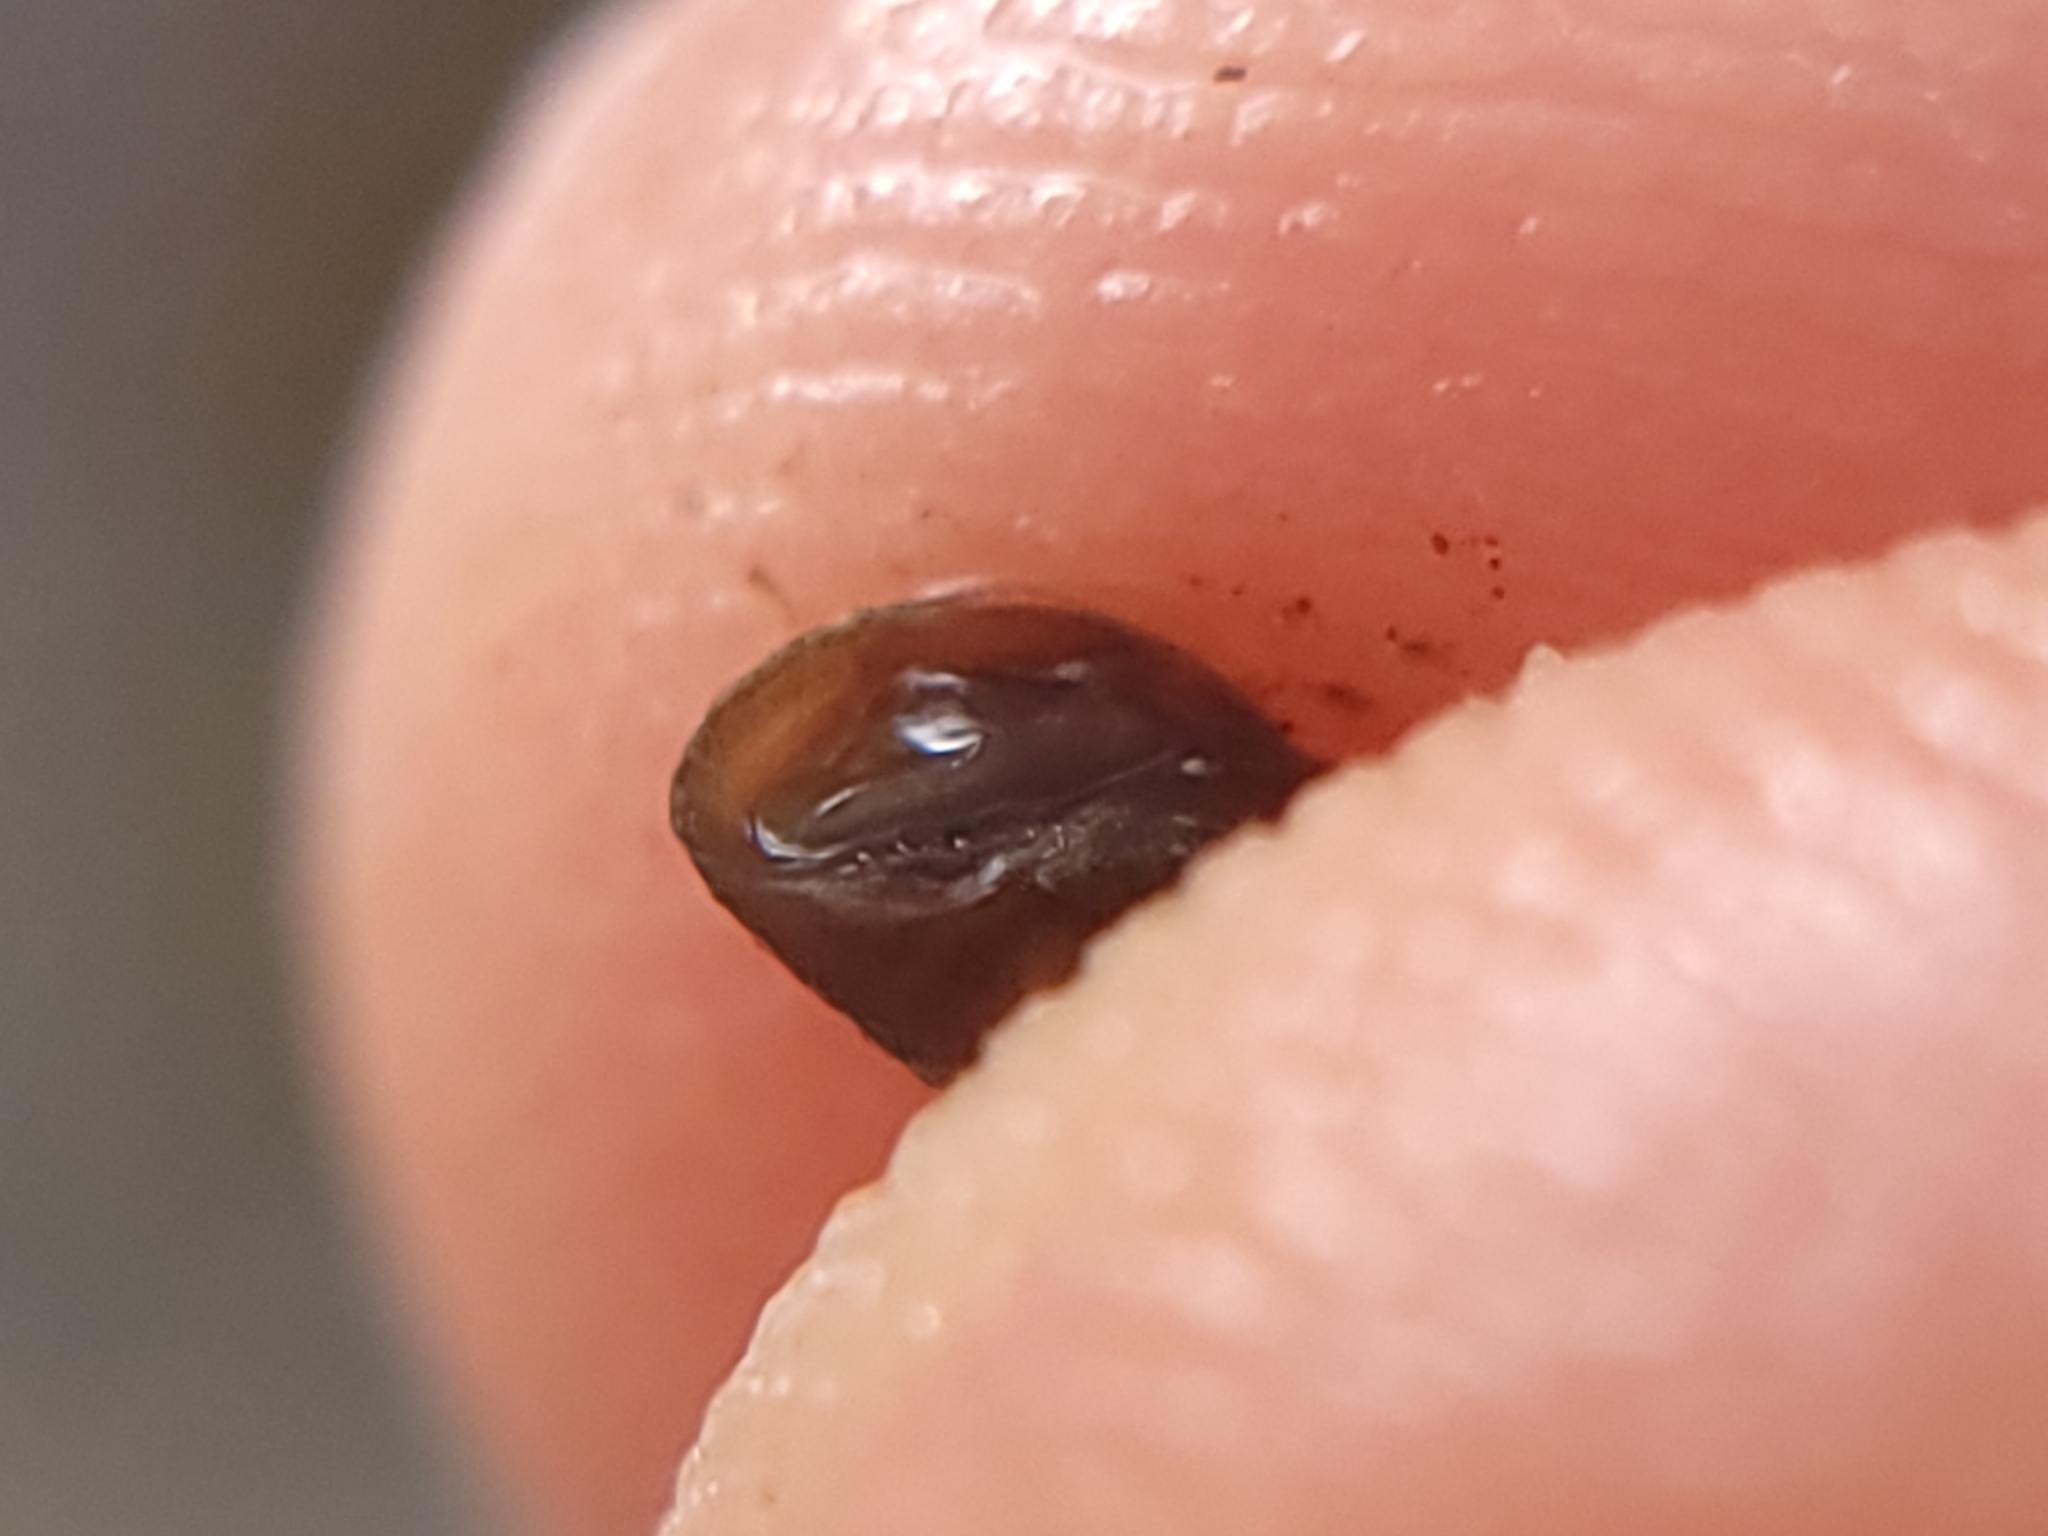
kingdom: Animalia
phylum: Mollusca
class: Gastropoda
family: Physidae
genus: Physella
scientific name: Physella acuta
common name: European physa
